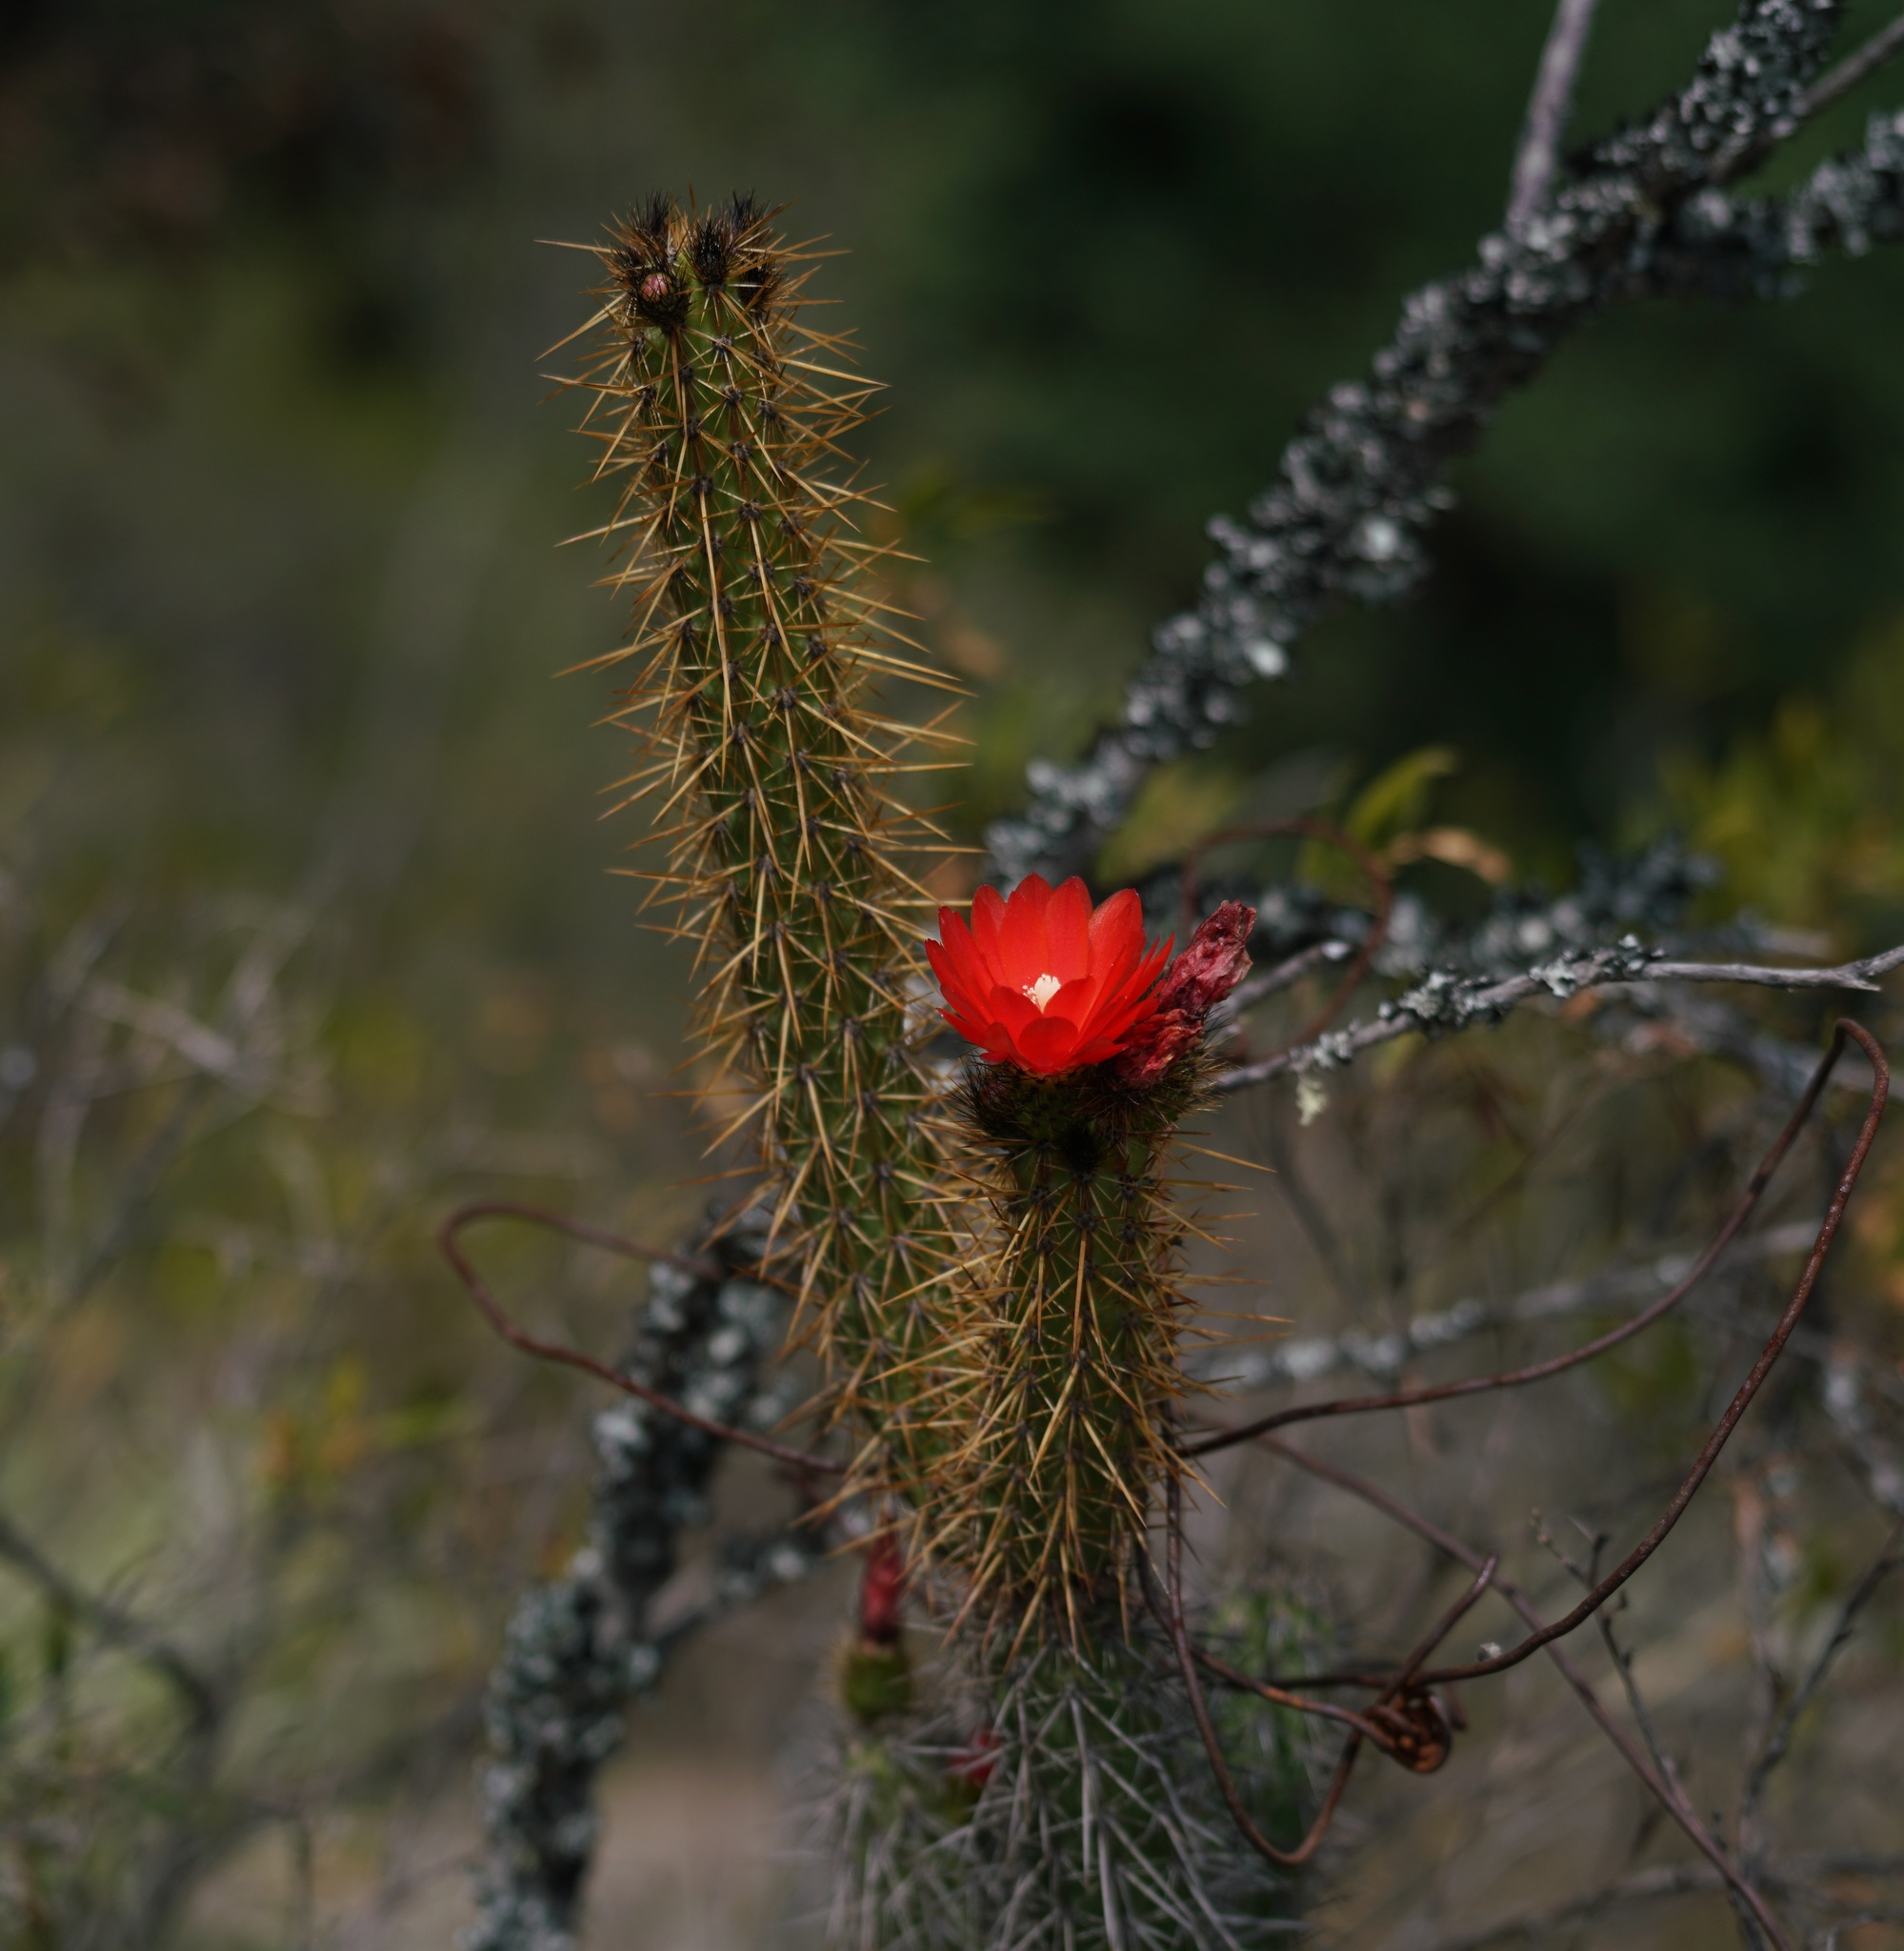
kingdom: Plantae
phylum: Tracheophyta
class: Magnoliopsida
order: Caryophyllales
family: Cactaceae
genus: Corryocactus
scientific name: Corryocactus erectus
